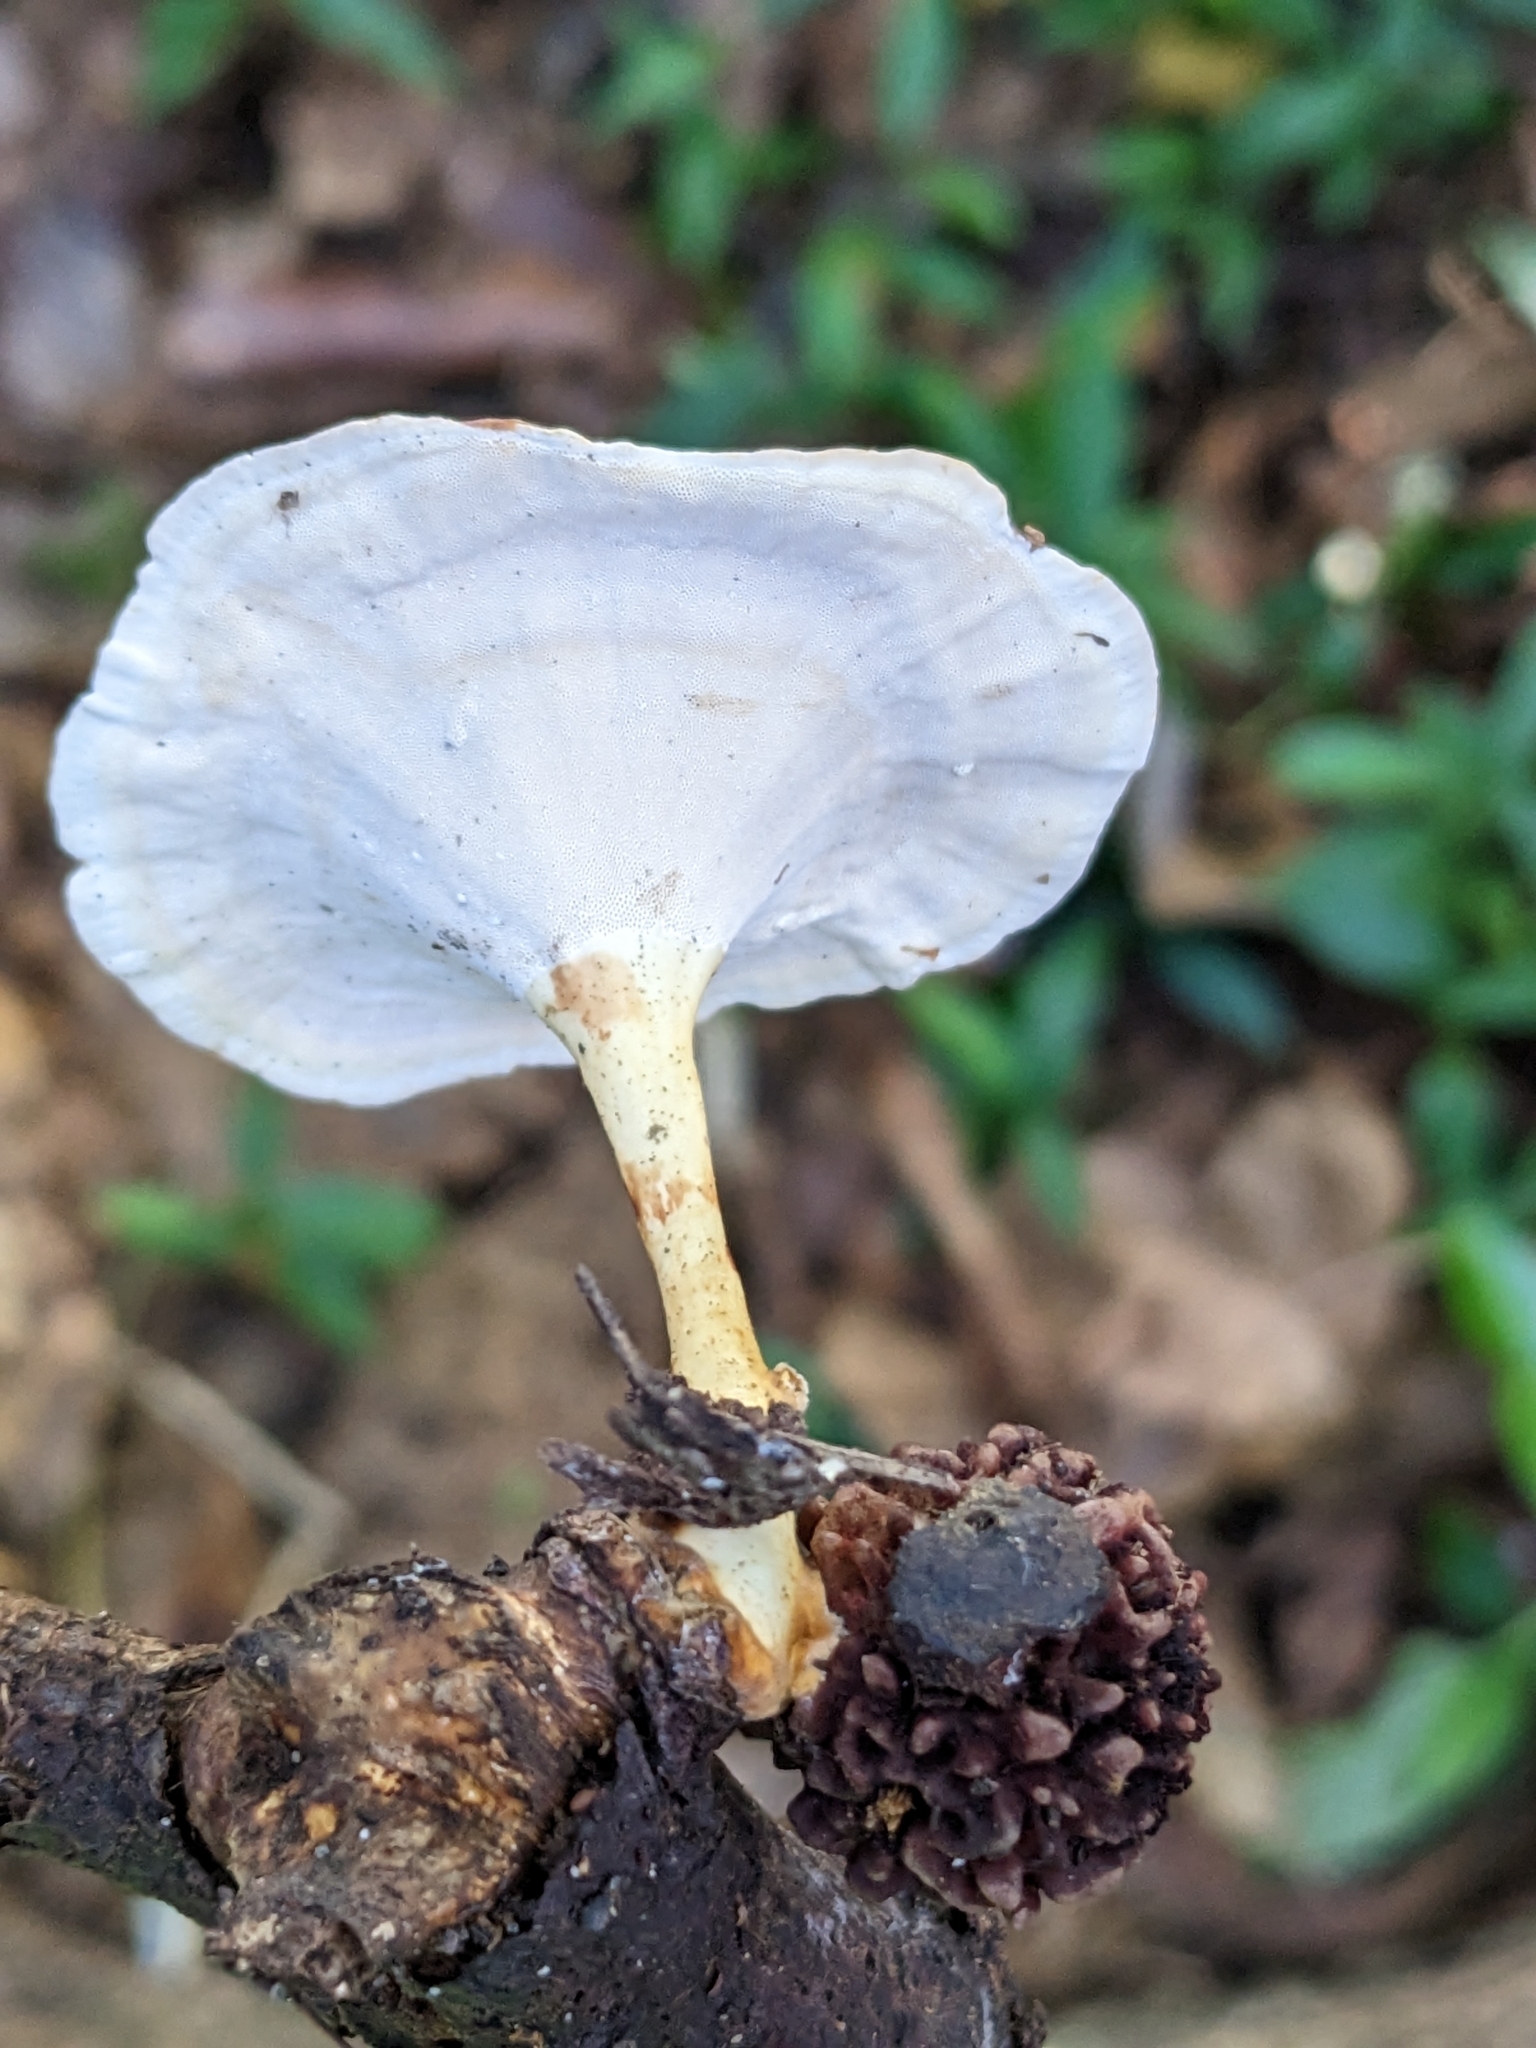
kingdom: Fungi
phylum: Basidiomycota
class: Agaricomycetes
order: Polyporales
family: Polyporaceae
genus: Microporus
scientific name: Microporus xanthopus
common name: Yellow-stemmed micropore
